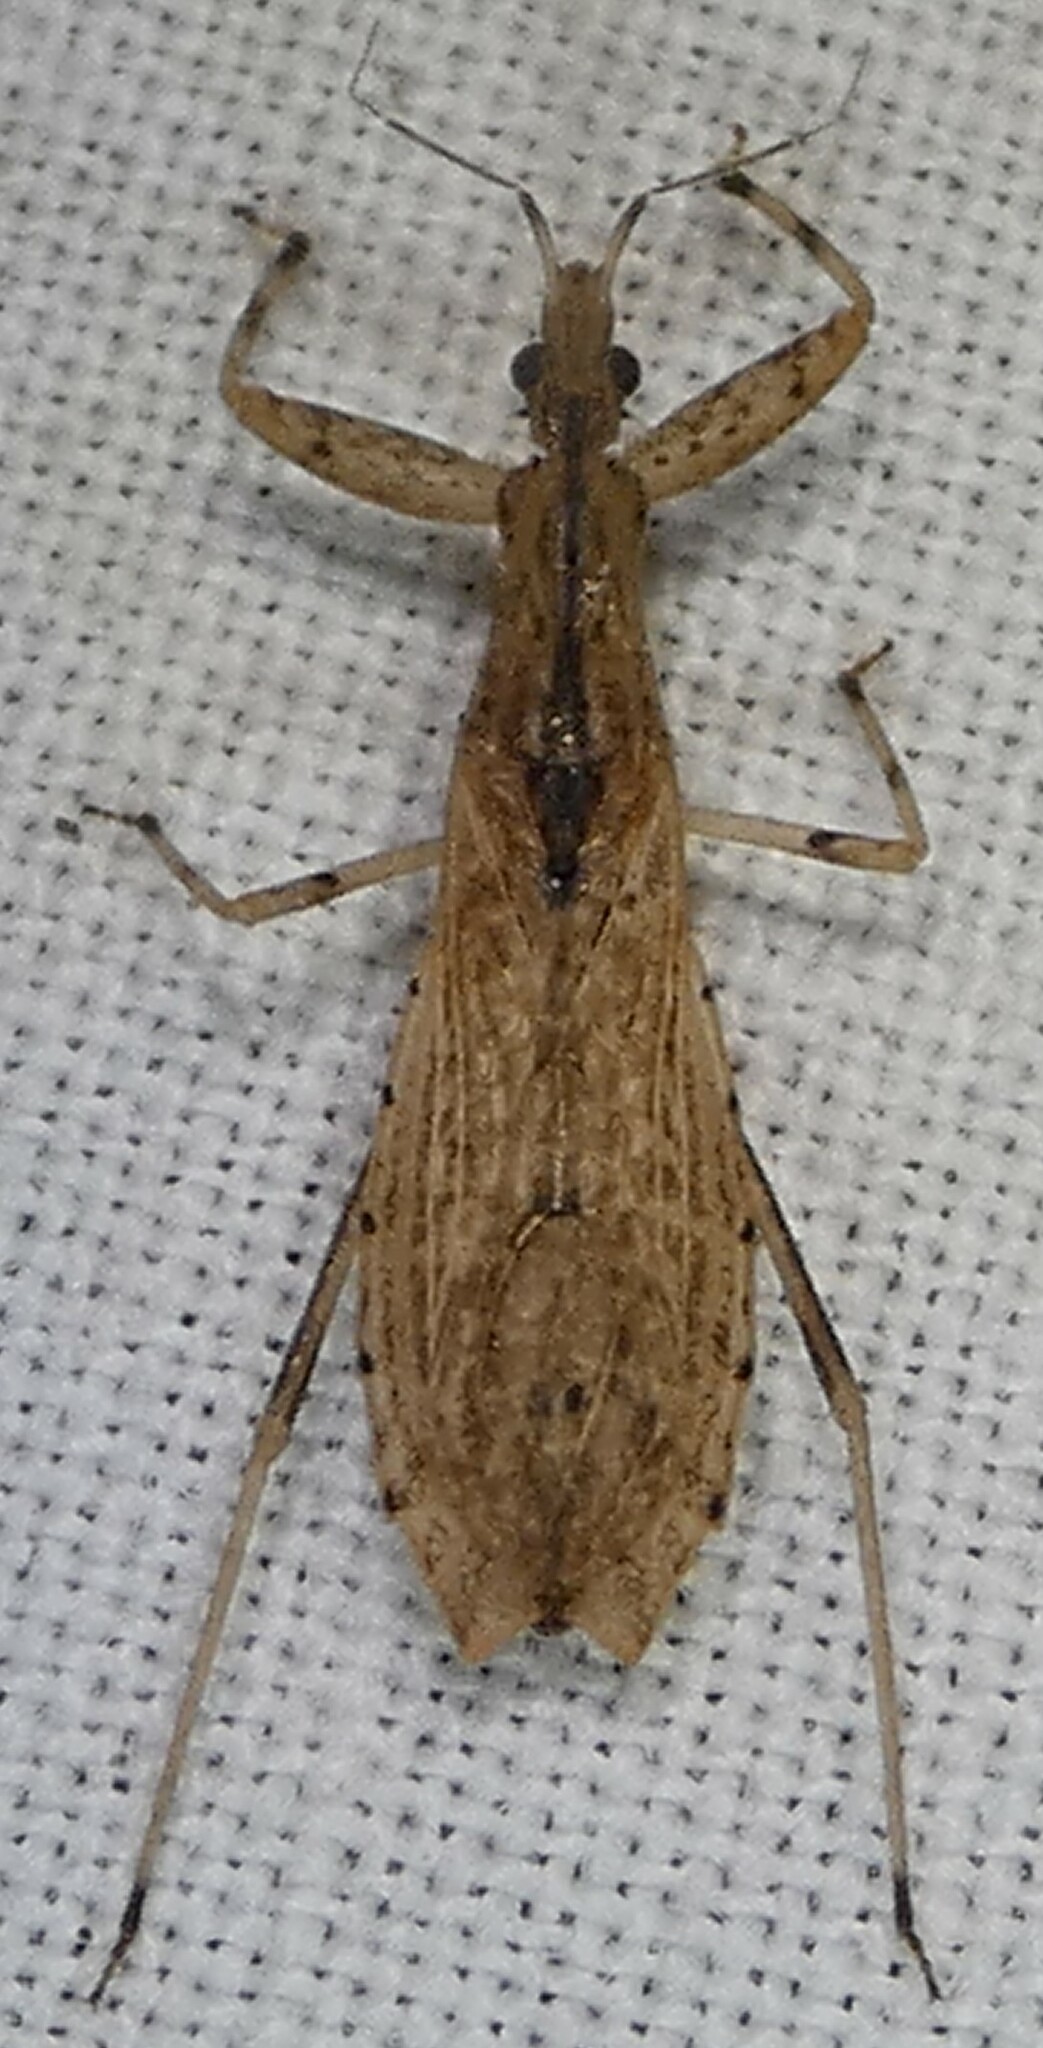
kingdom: Animalia
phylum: Arthropoda
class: Insecta
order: Hemiptera
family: Reduviidae
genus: Ctenotrachelus
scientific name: Ctenotrachelus shermani
